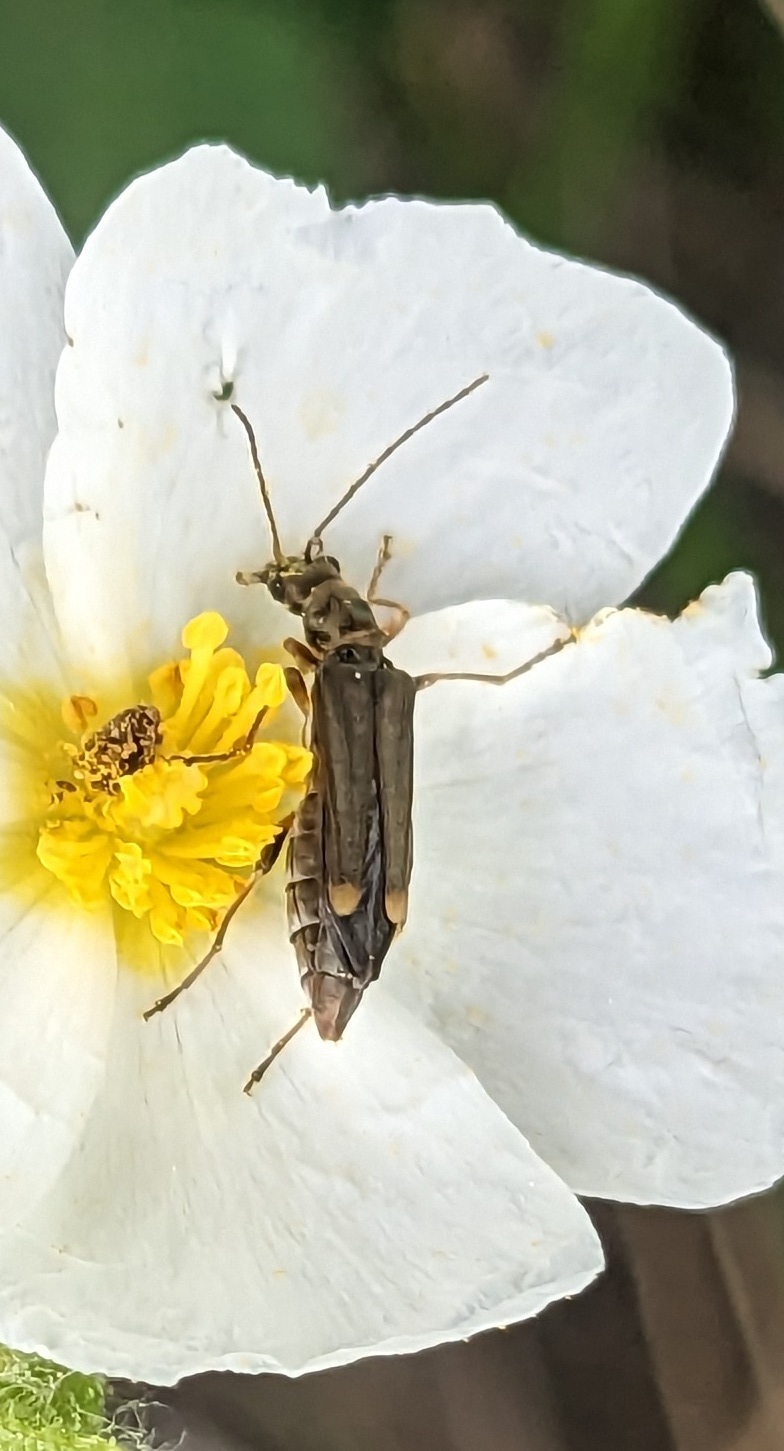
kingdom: Animalia
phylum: Arthropoda
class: Insecta
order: Coleoptera
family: Oedemeridae
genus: Oedemera
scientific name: Oedemera barbara
